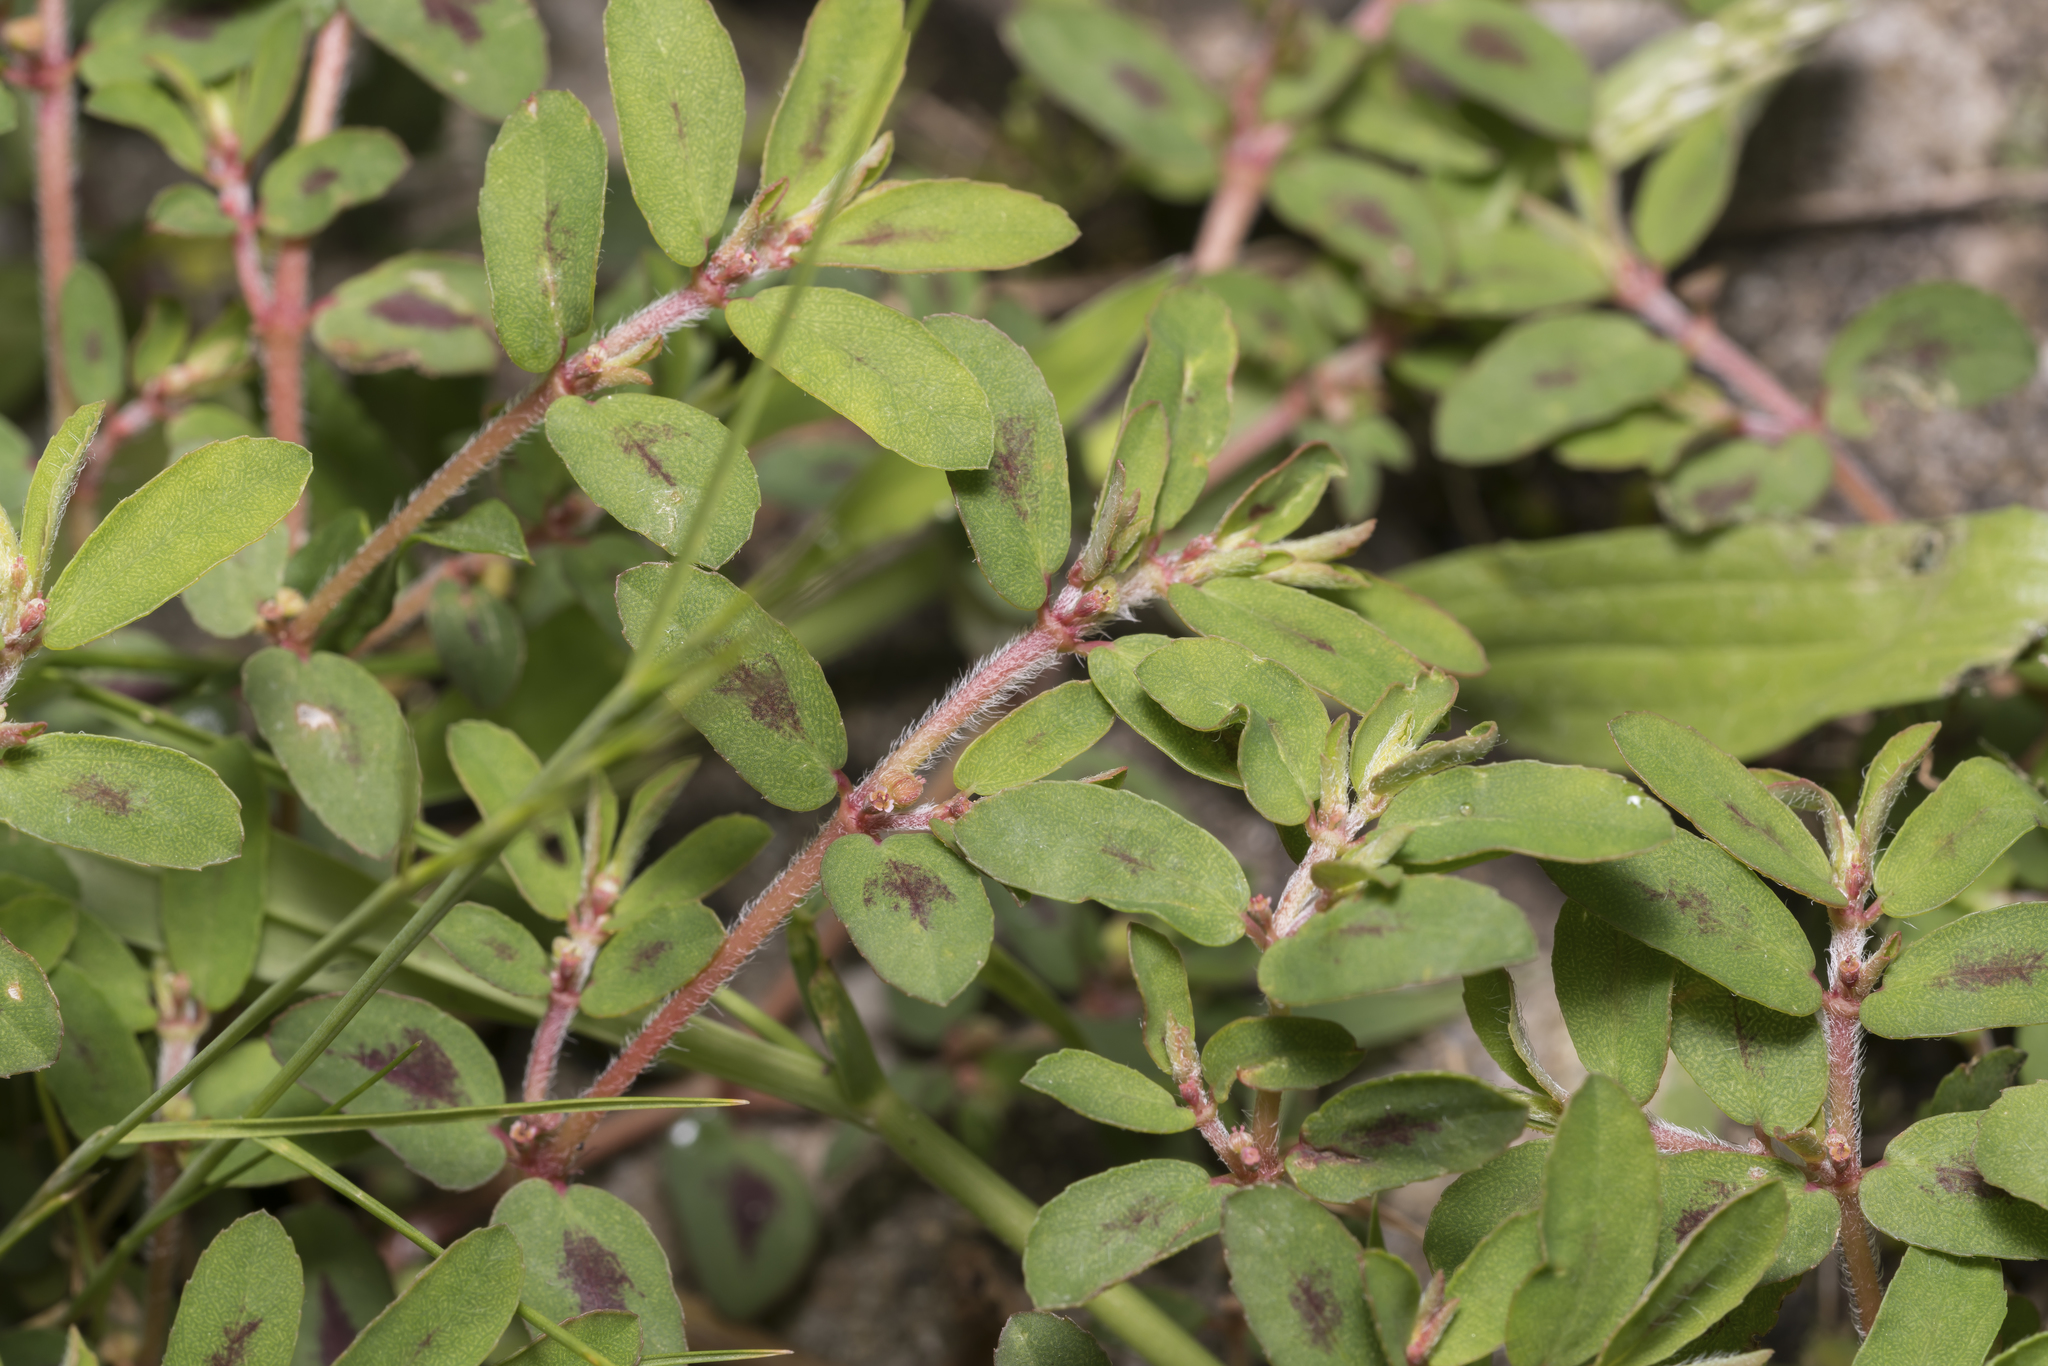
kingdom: Plantae
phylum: Tracheophyta
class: Magnoliopsida
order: Malpighiales
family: Euphorbiaceae
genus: Euphorbia
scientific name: Euphorbia maculata
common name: Spotted spurge
